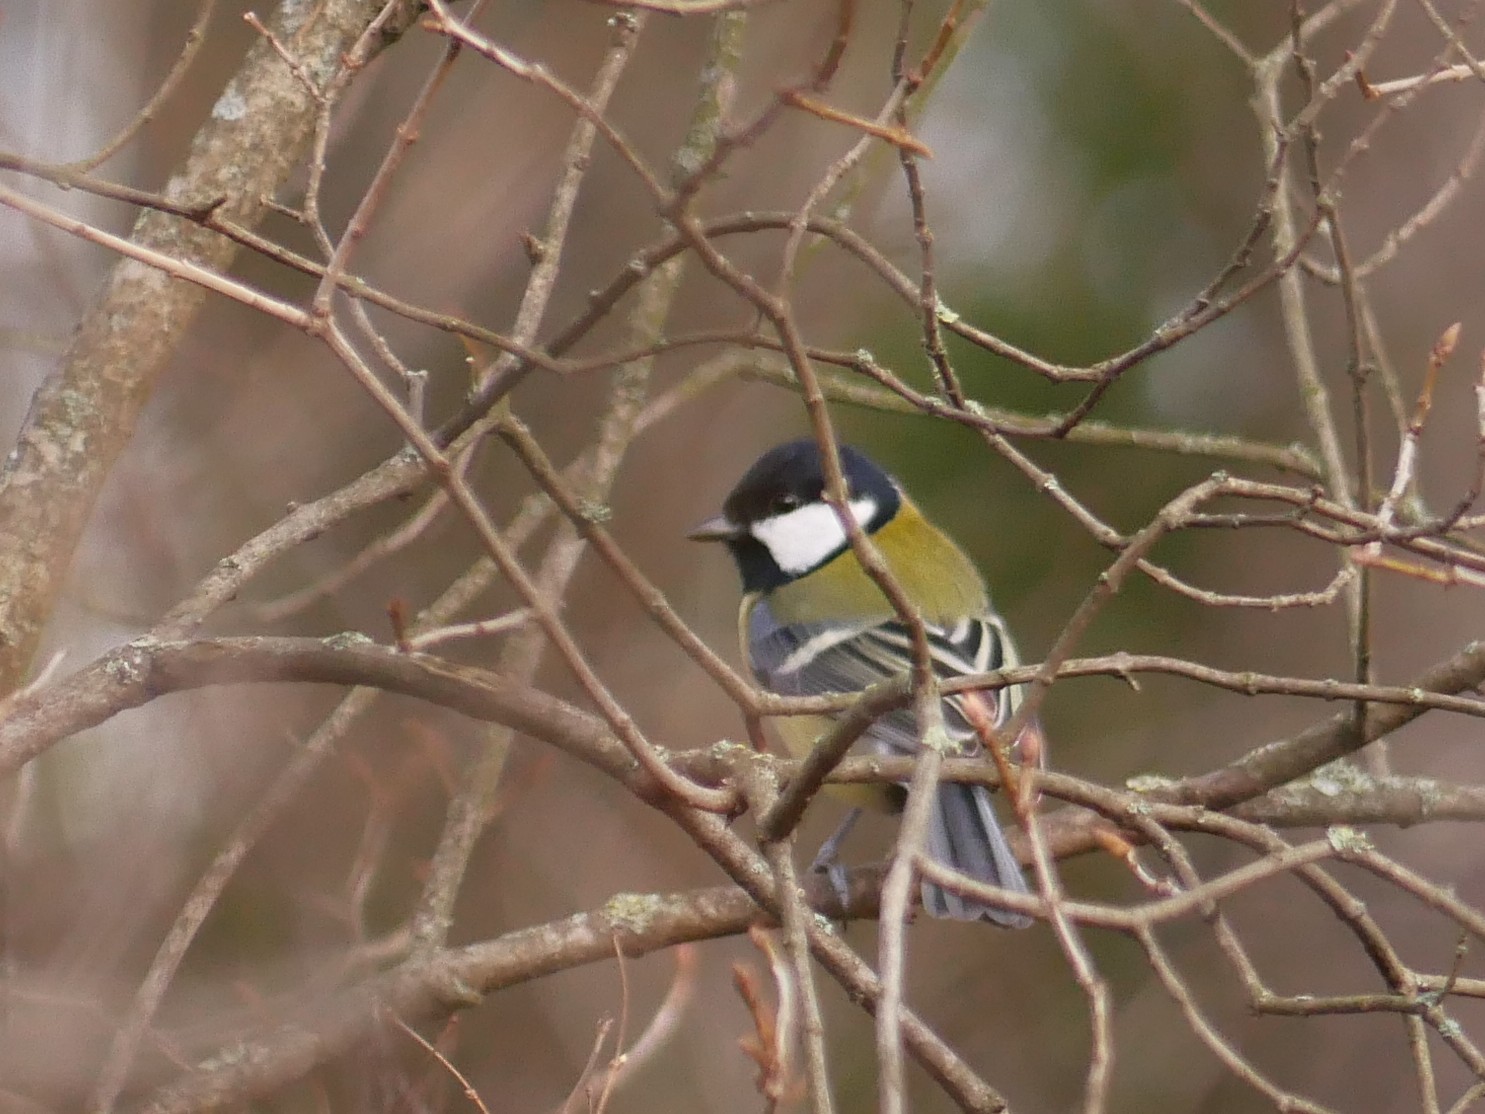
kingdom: Animalia
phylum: Chordata
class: Aves
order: Passeriformes
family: Paridae
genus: Parus
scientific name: Parus major
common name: Great tit
